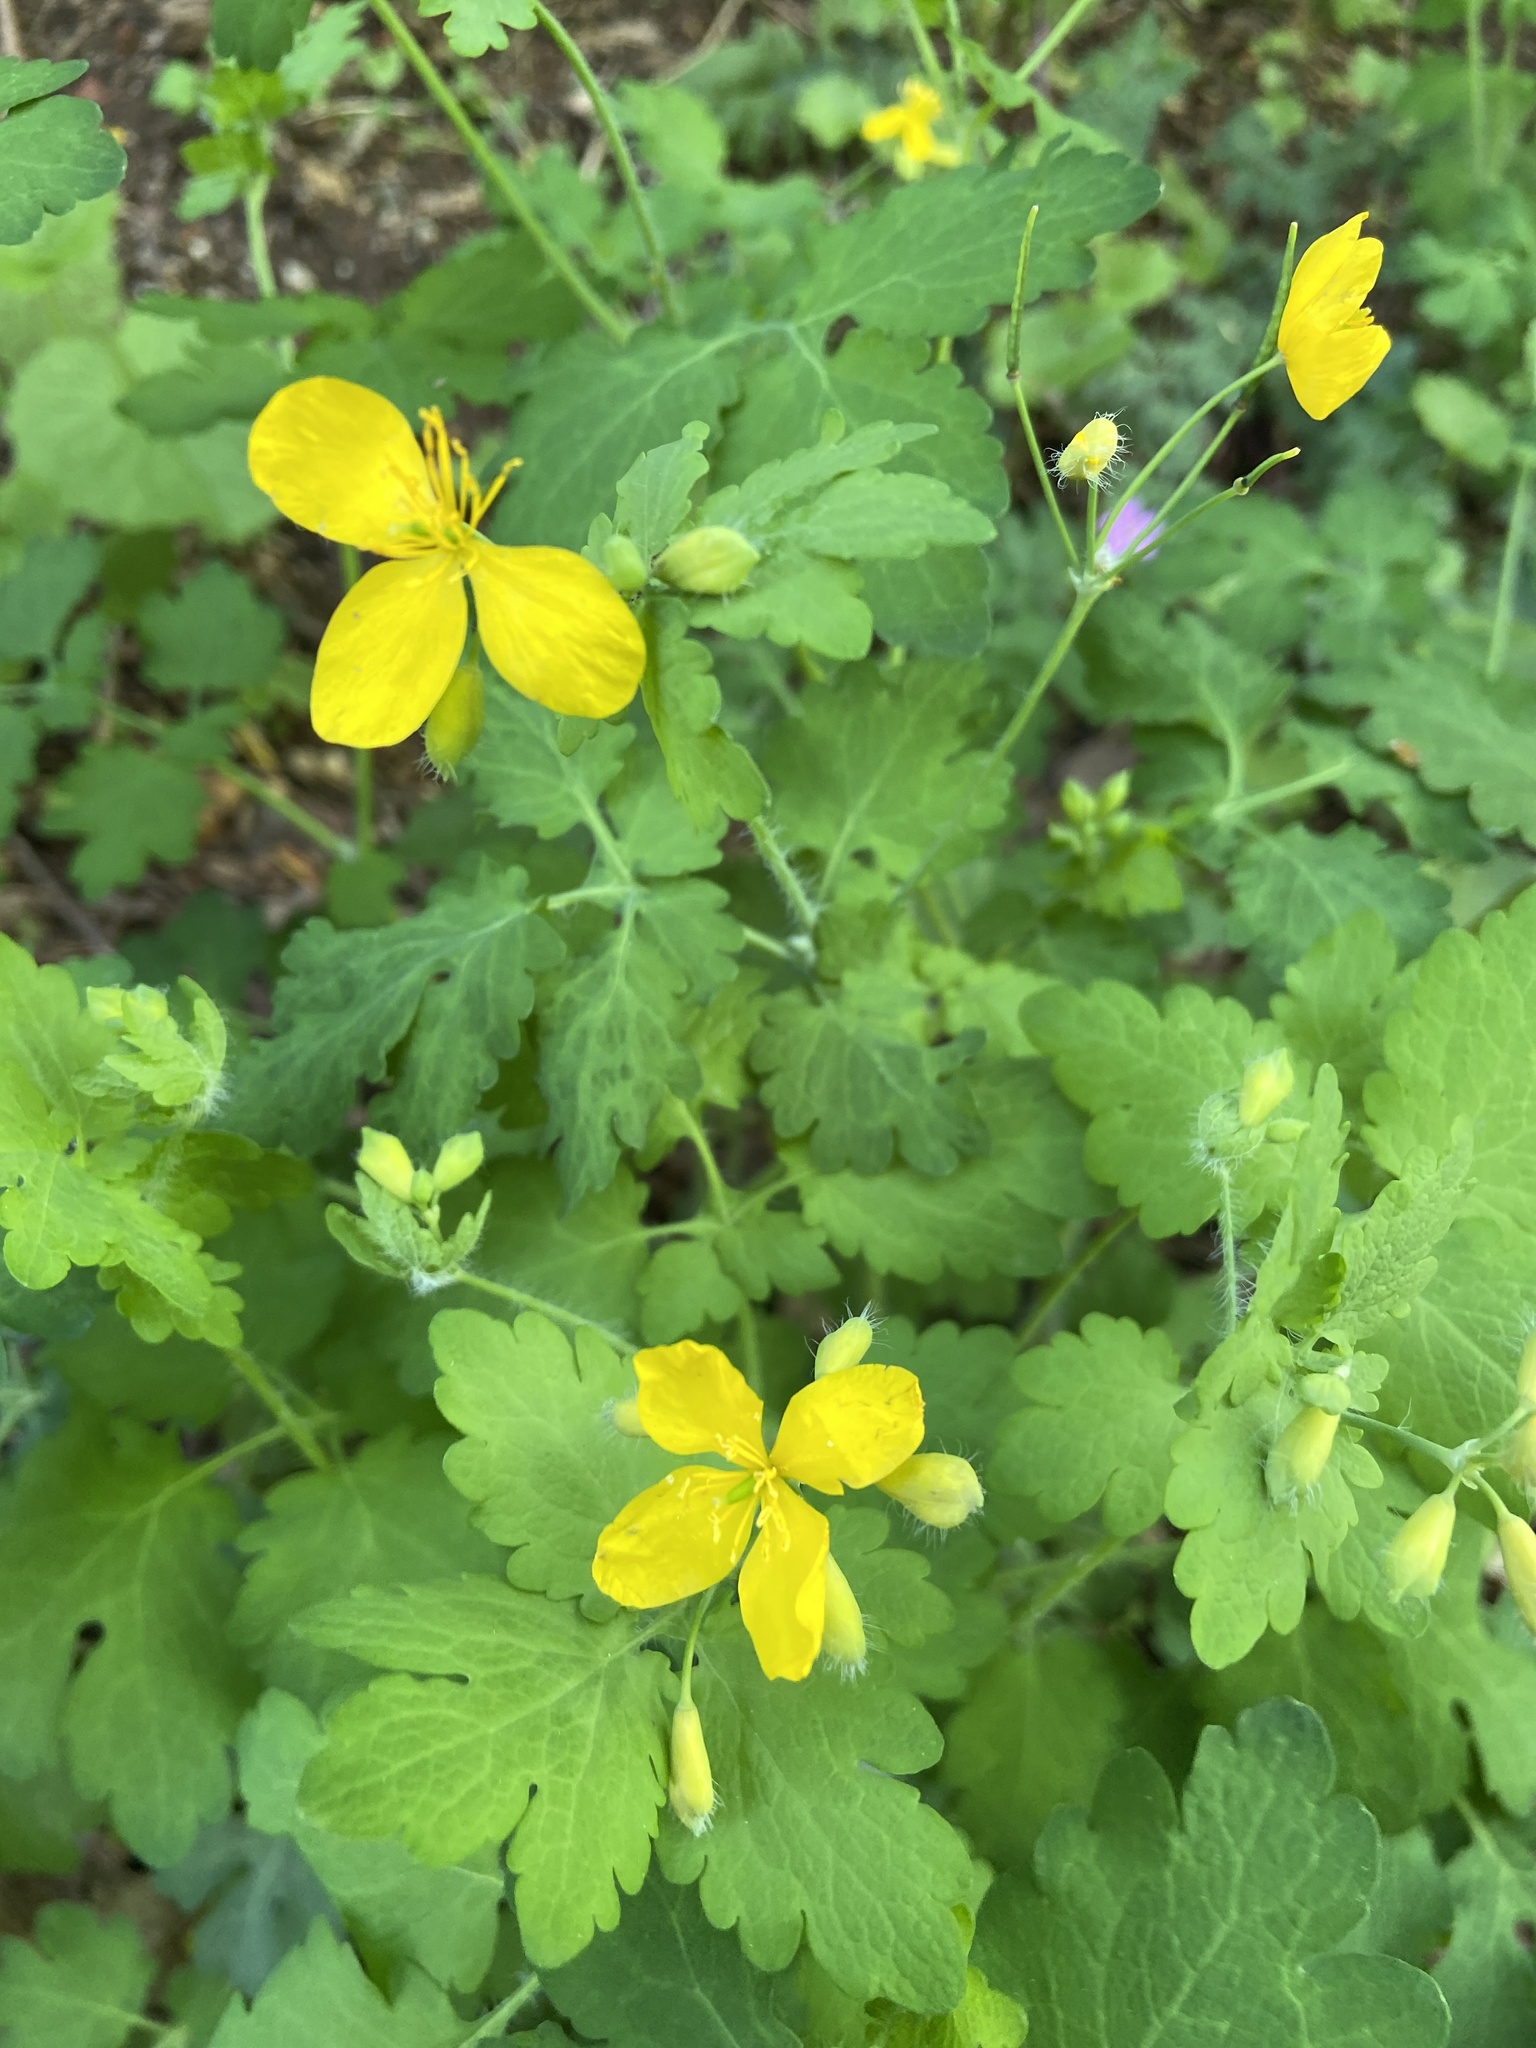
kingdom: Plantae
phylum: Tracheophyta
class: Magnoliopsida
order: Ranunculales
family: Papaveraceae
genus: Chelidonium
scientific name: Chelidonium majus
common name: Greater celandine
